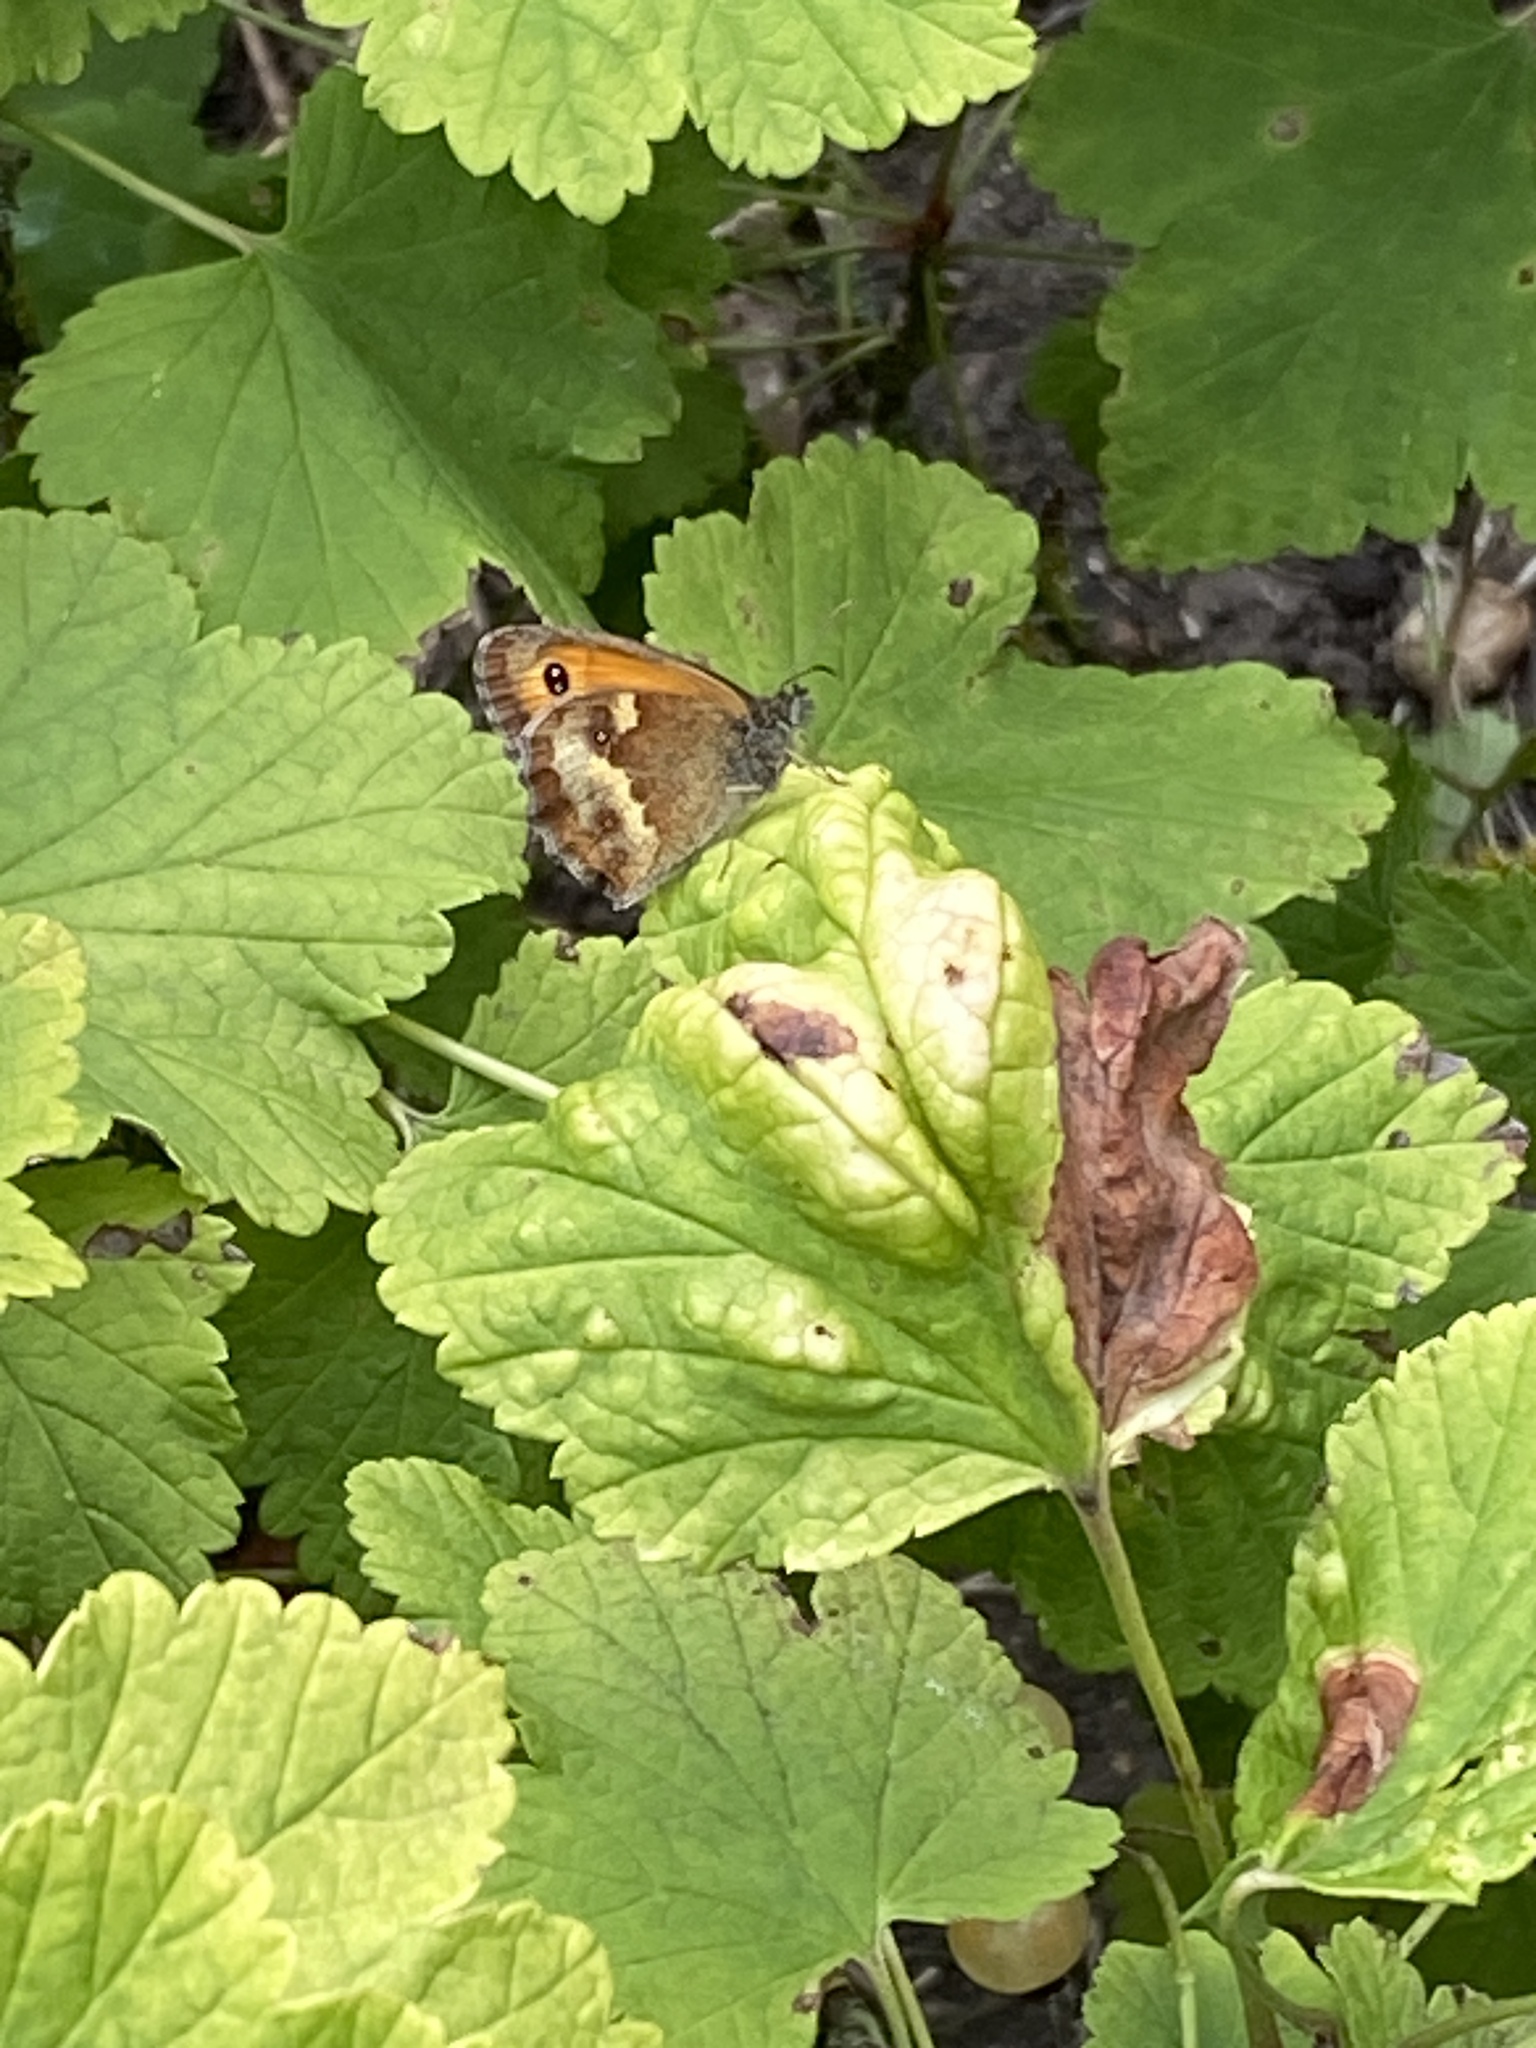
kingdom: Animalia
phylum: Arthropoda
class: Insecta
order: Lepidoptera
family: Nymphalidae
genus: Pyronia
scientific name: Pyronia tithonus
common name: Gatekeeper
